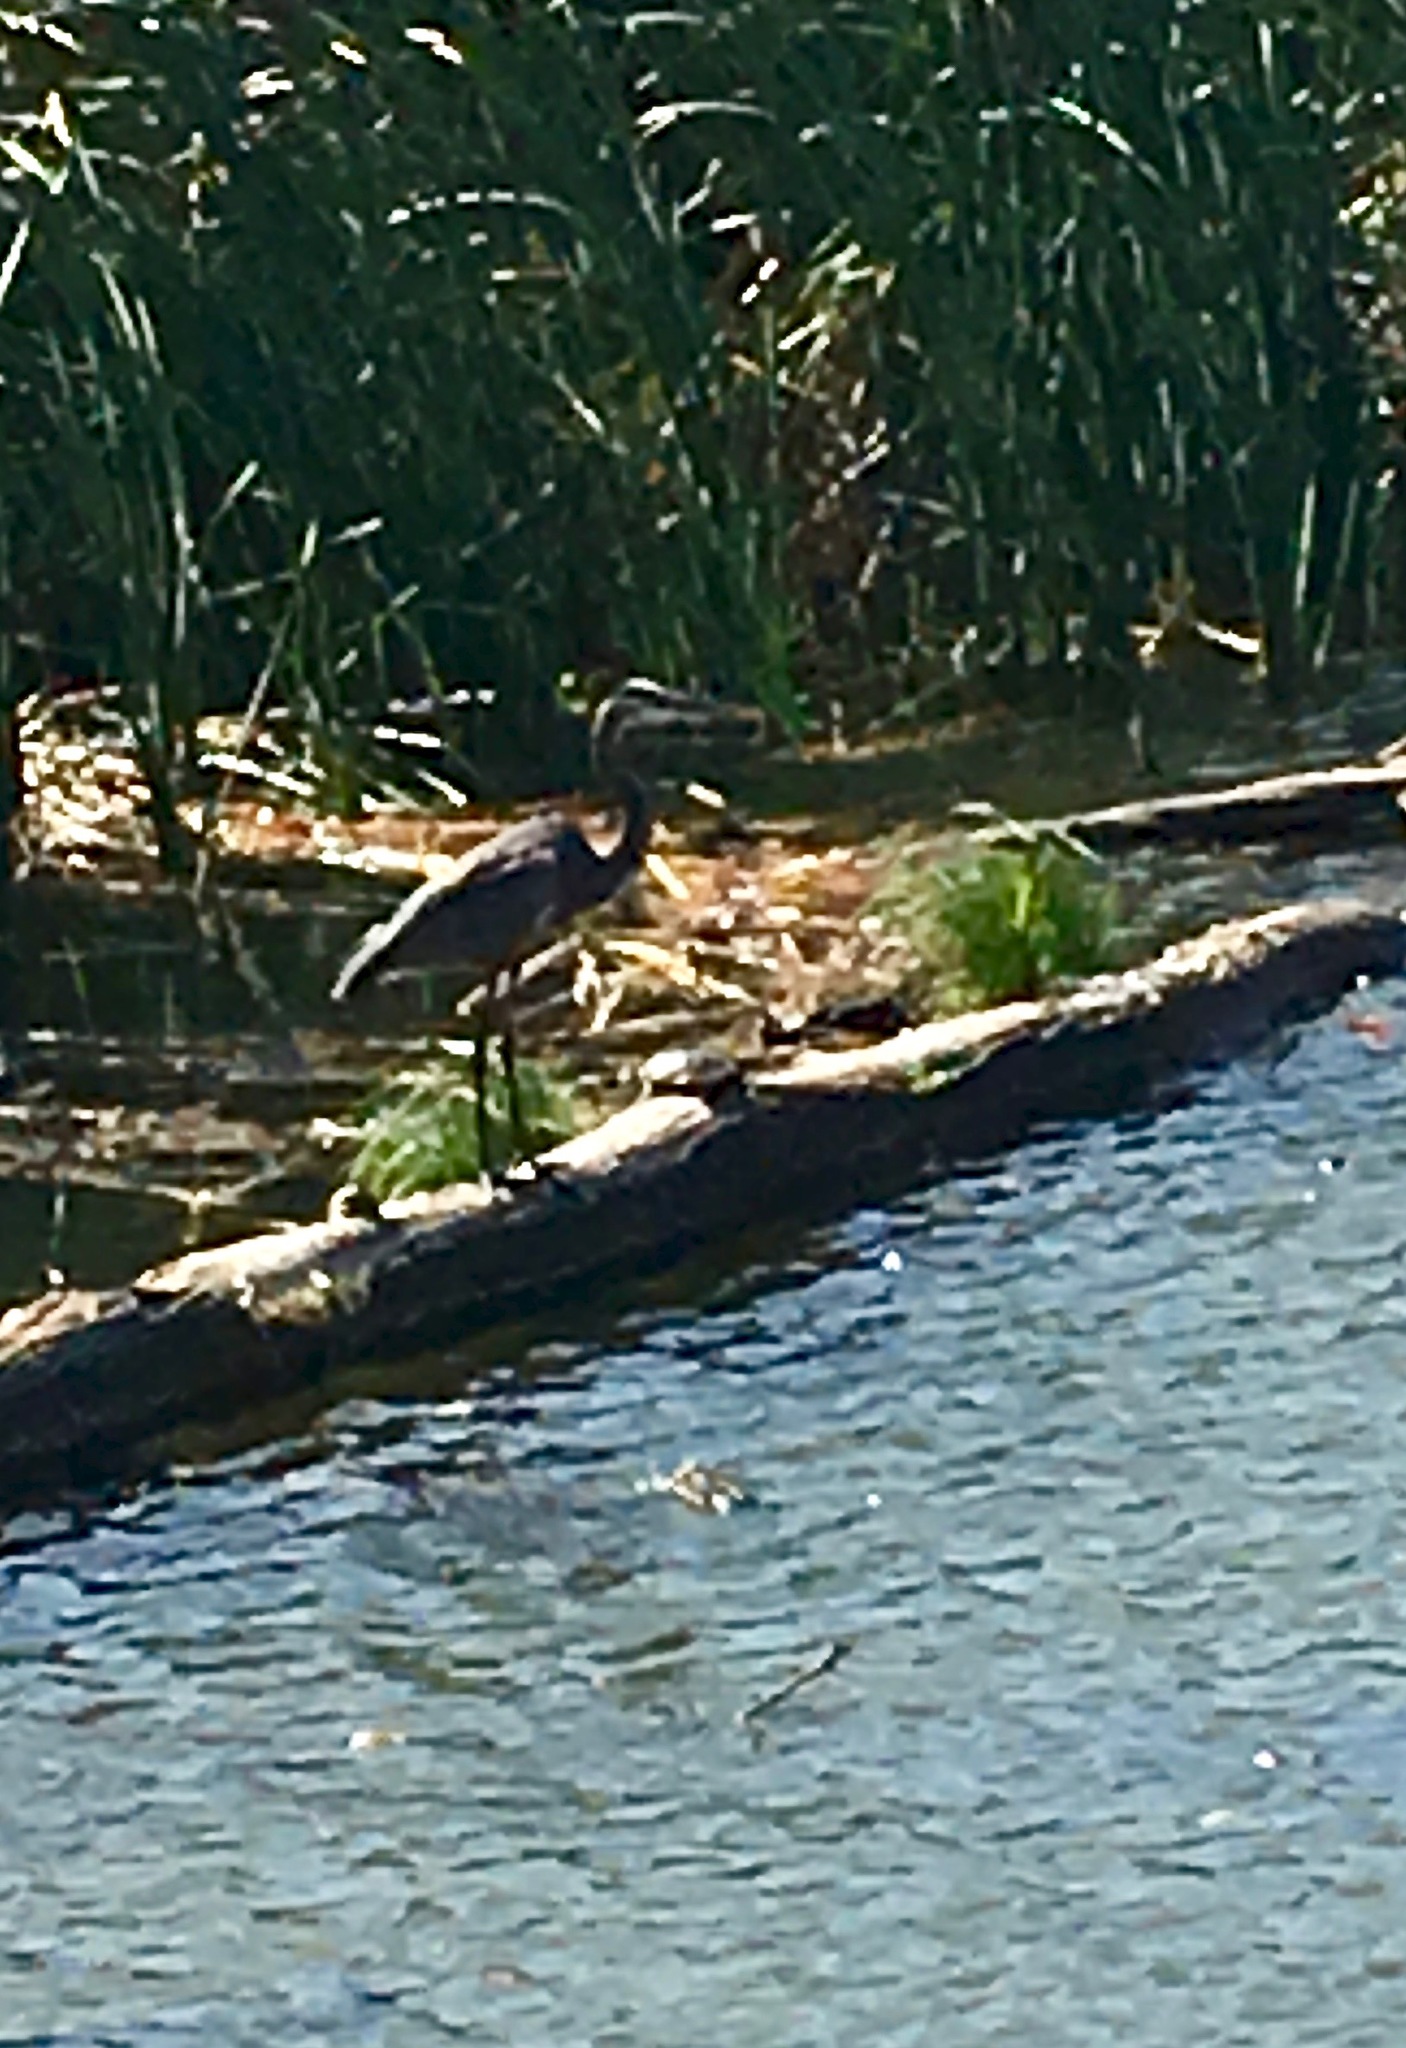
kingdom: Animalia
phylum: Chordata
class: Aves
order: Pelecaniformes
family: Ardeidae
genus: Ardea
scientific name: Ardea herodias
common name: Great blue heron
